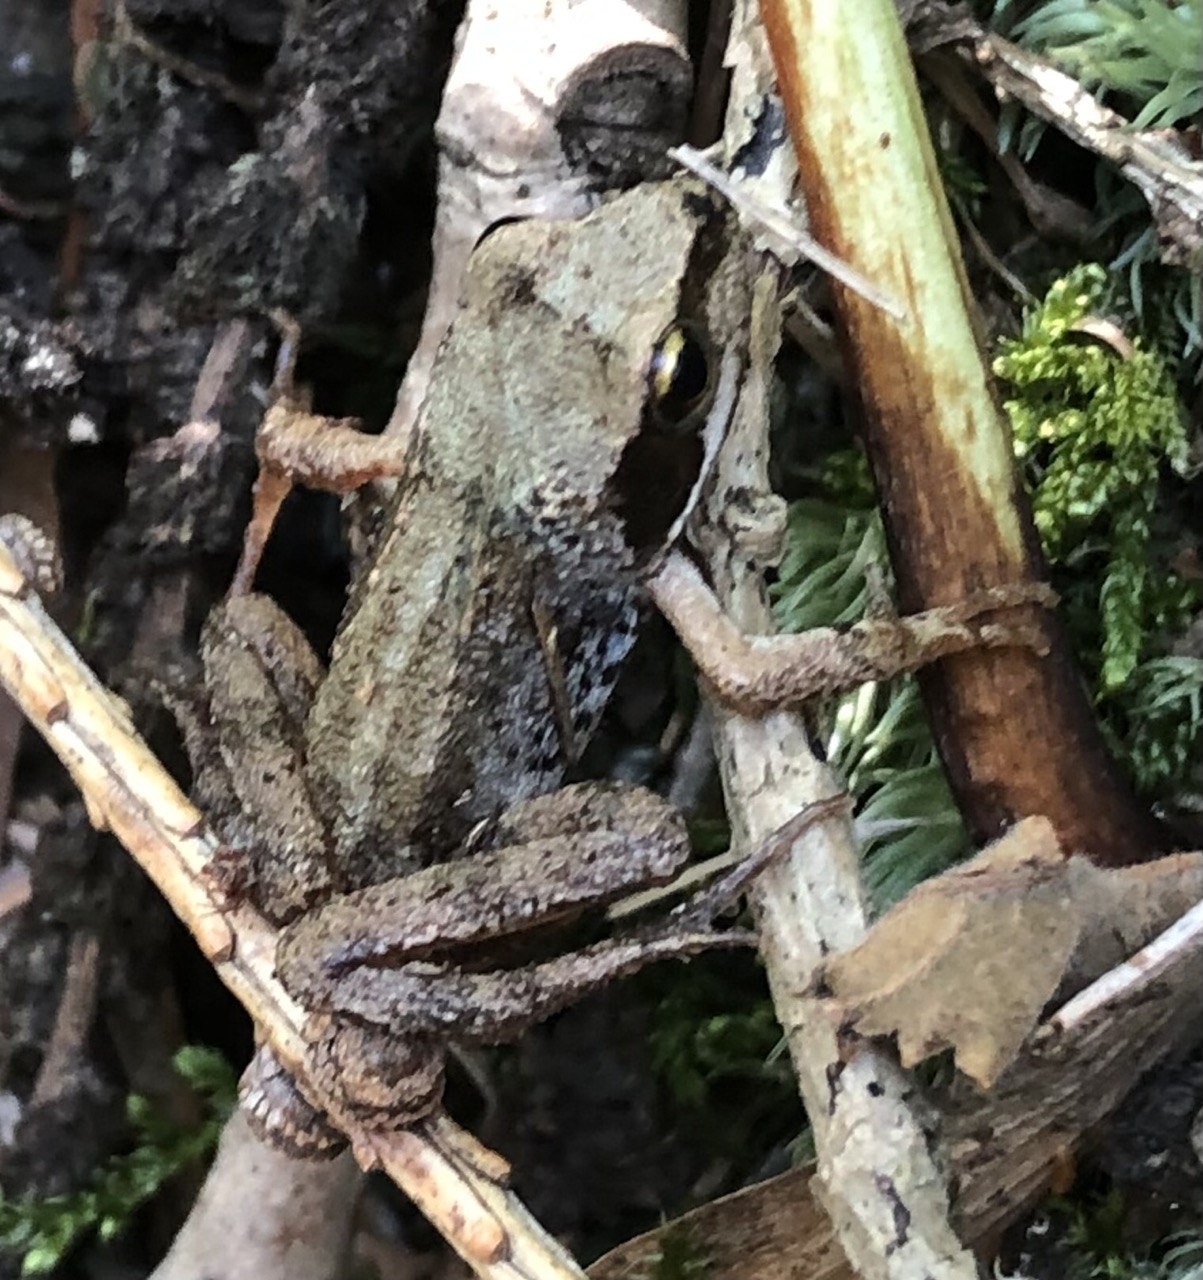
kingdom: Animalia
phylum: Chordata
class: Amphibia
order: Anura
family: Ranidae
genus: Rana
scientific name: Rana temporaria
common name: Common frog
